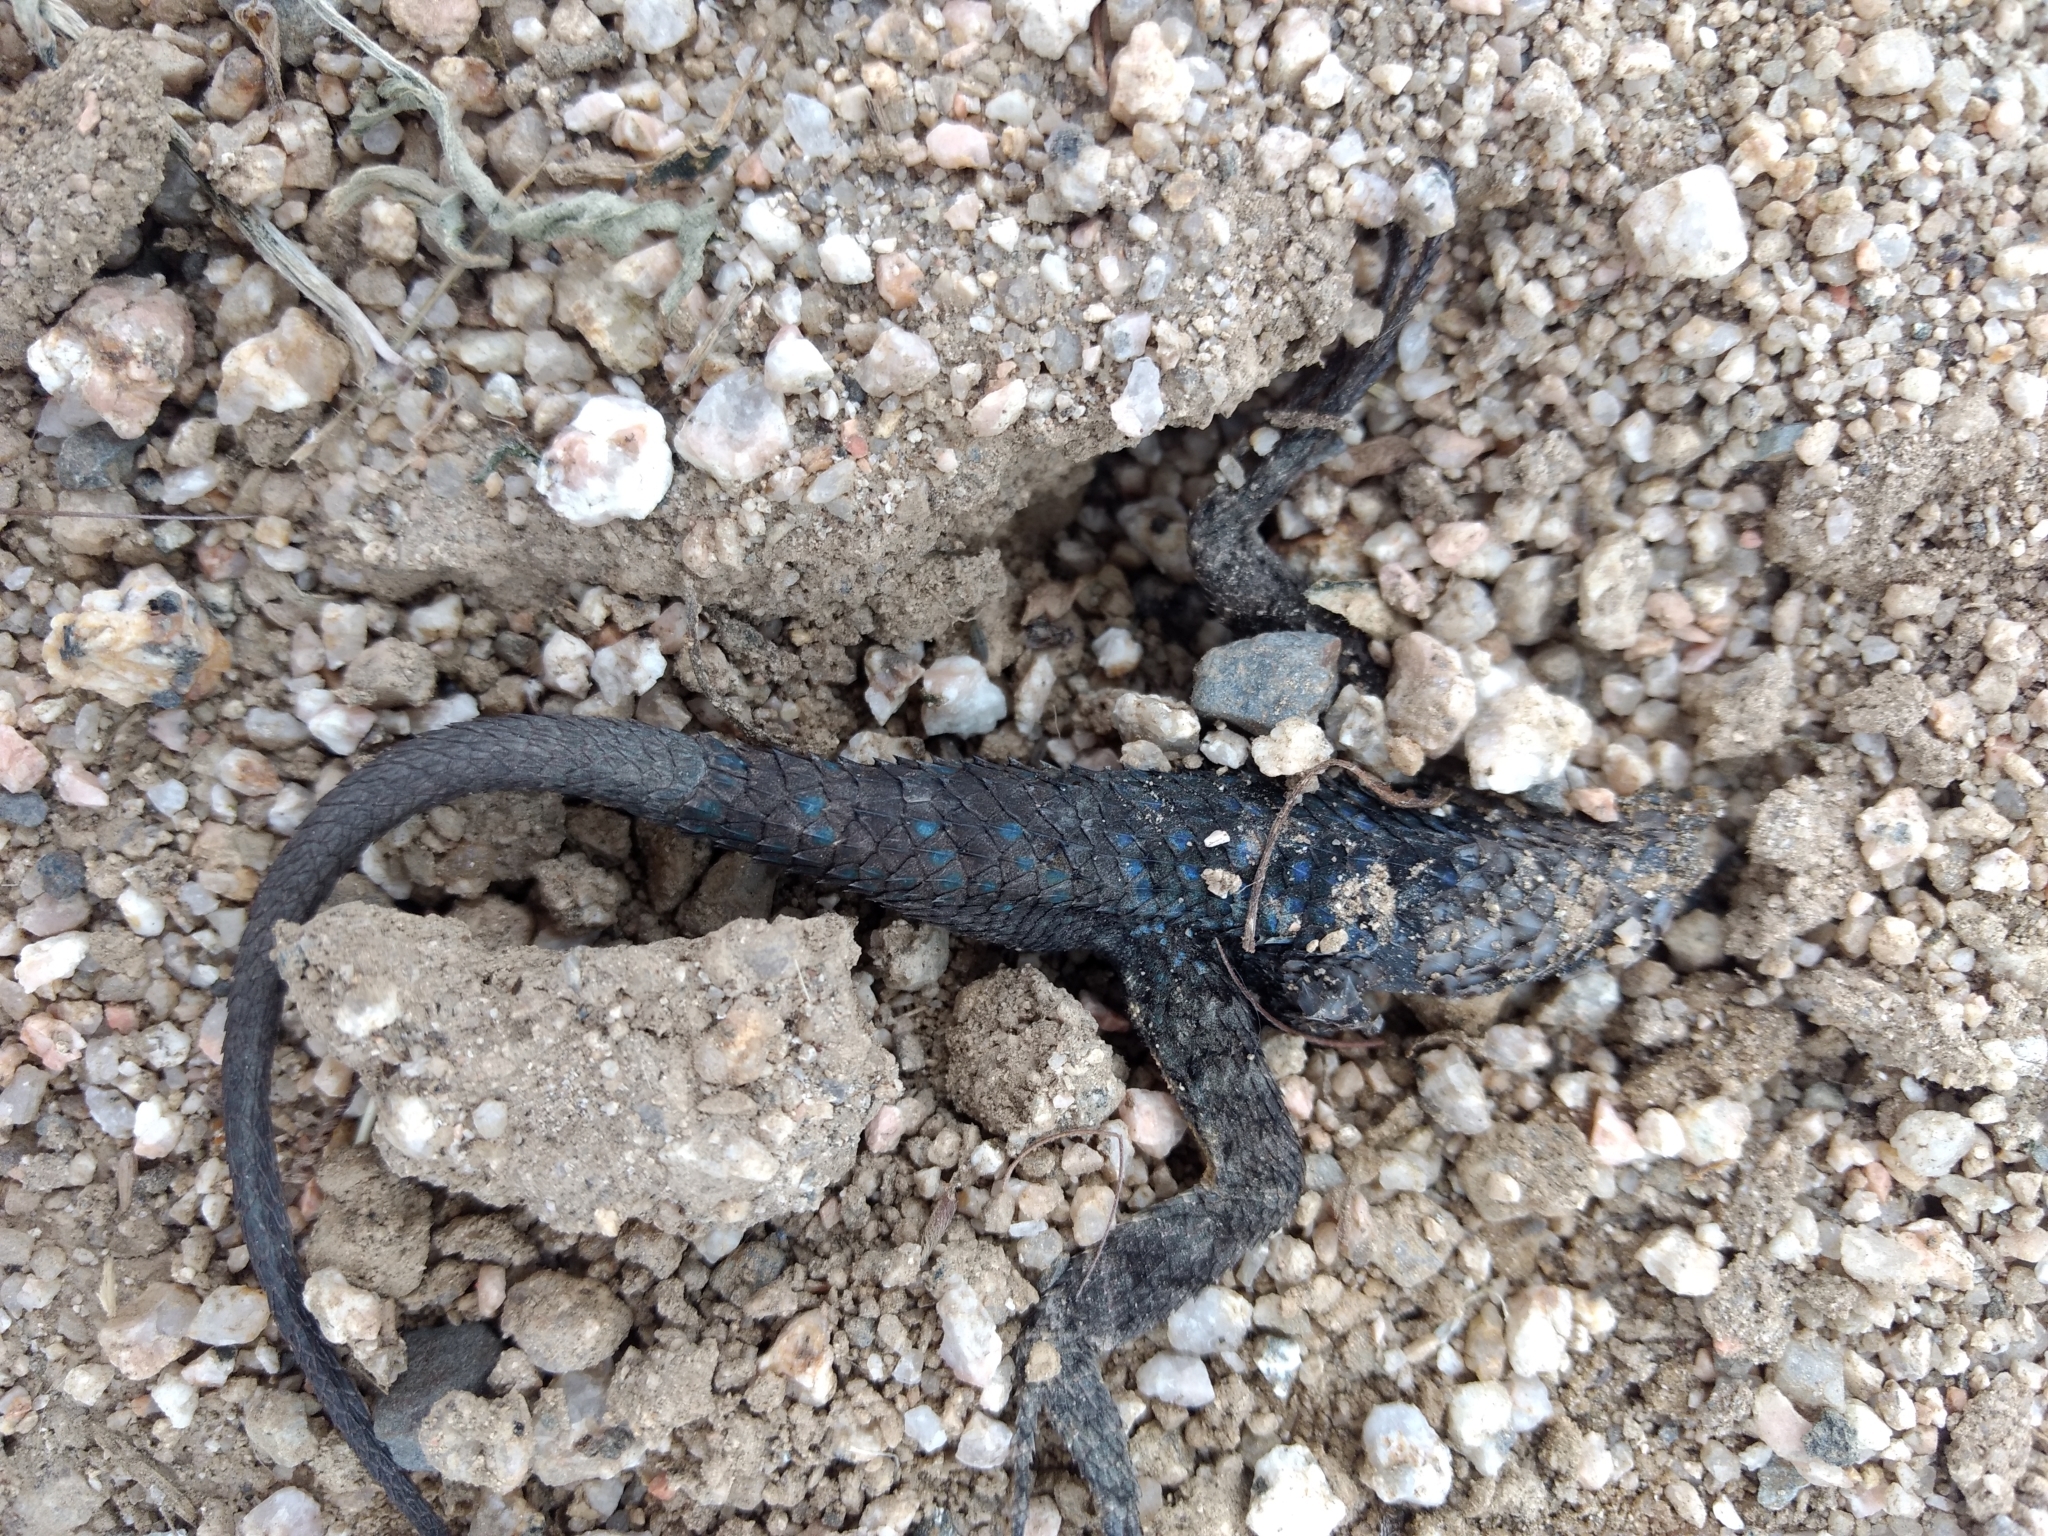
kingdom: Animalia
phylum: Chordata
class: Squamata
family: Phrynosomatidae
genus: Sceloporus
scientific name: Sceloporus occidentalis
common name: Western fence lizard
